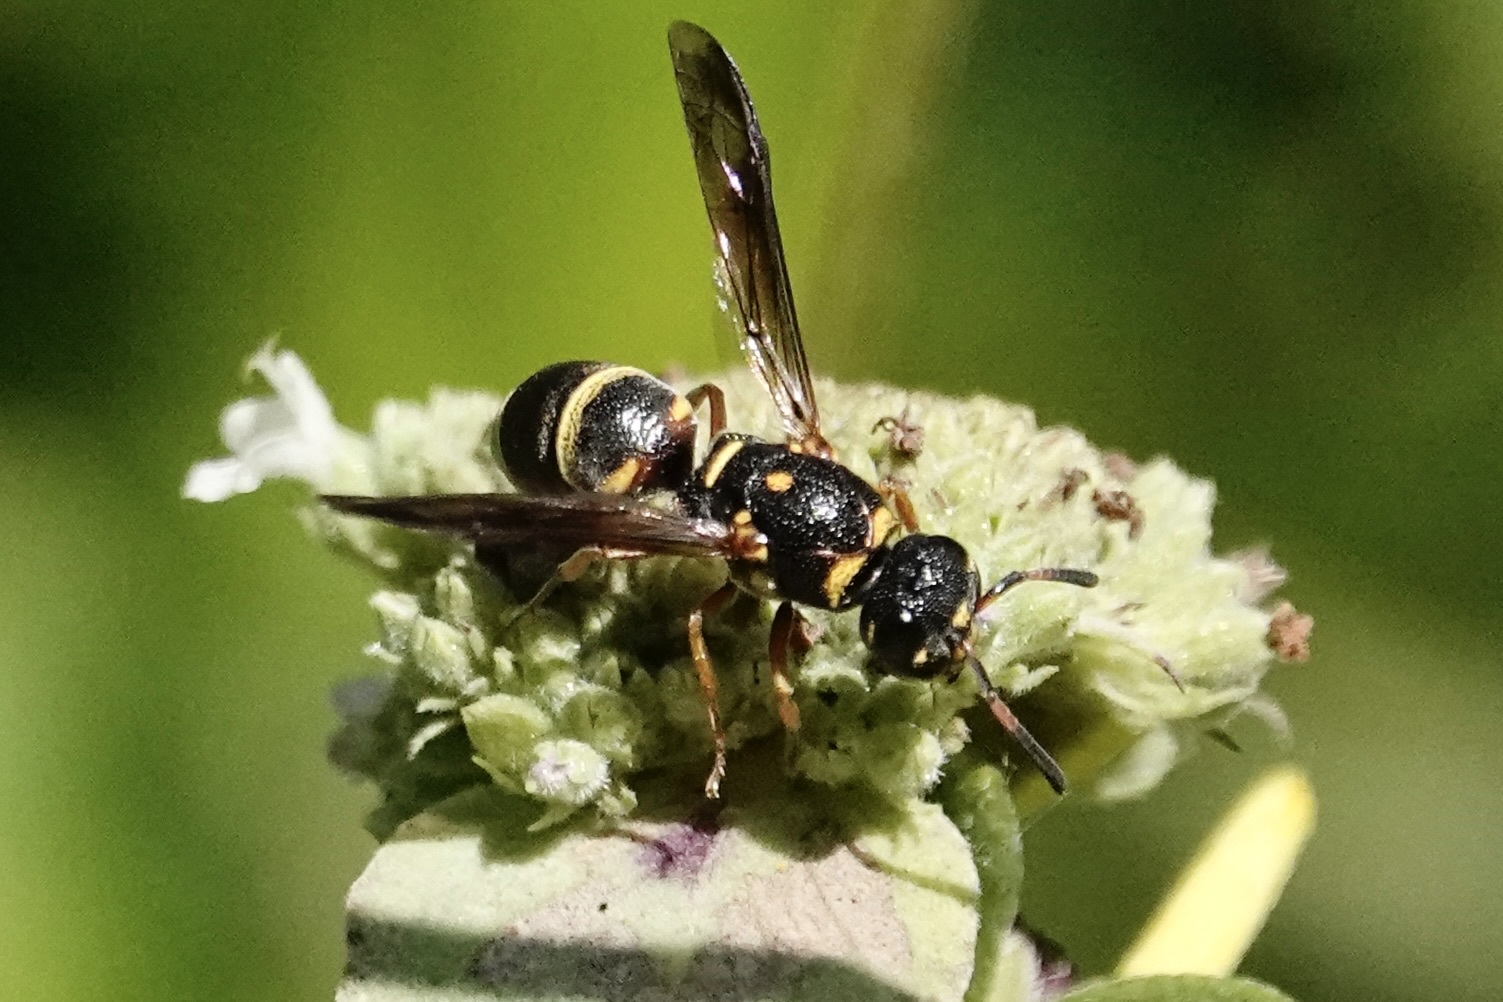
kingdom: Animalia
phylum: Arthropoda
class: Insecta
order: Hymenoptera
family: Eumenidae
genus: Parancistrocerus
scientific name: Parancistrocerus fulvipes
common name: Potter wasp
